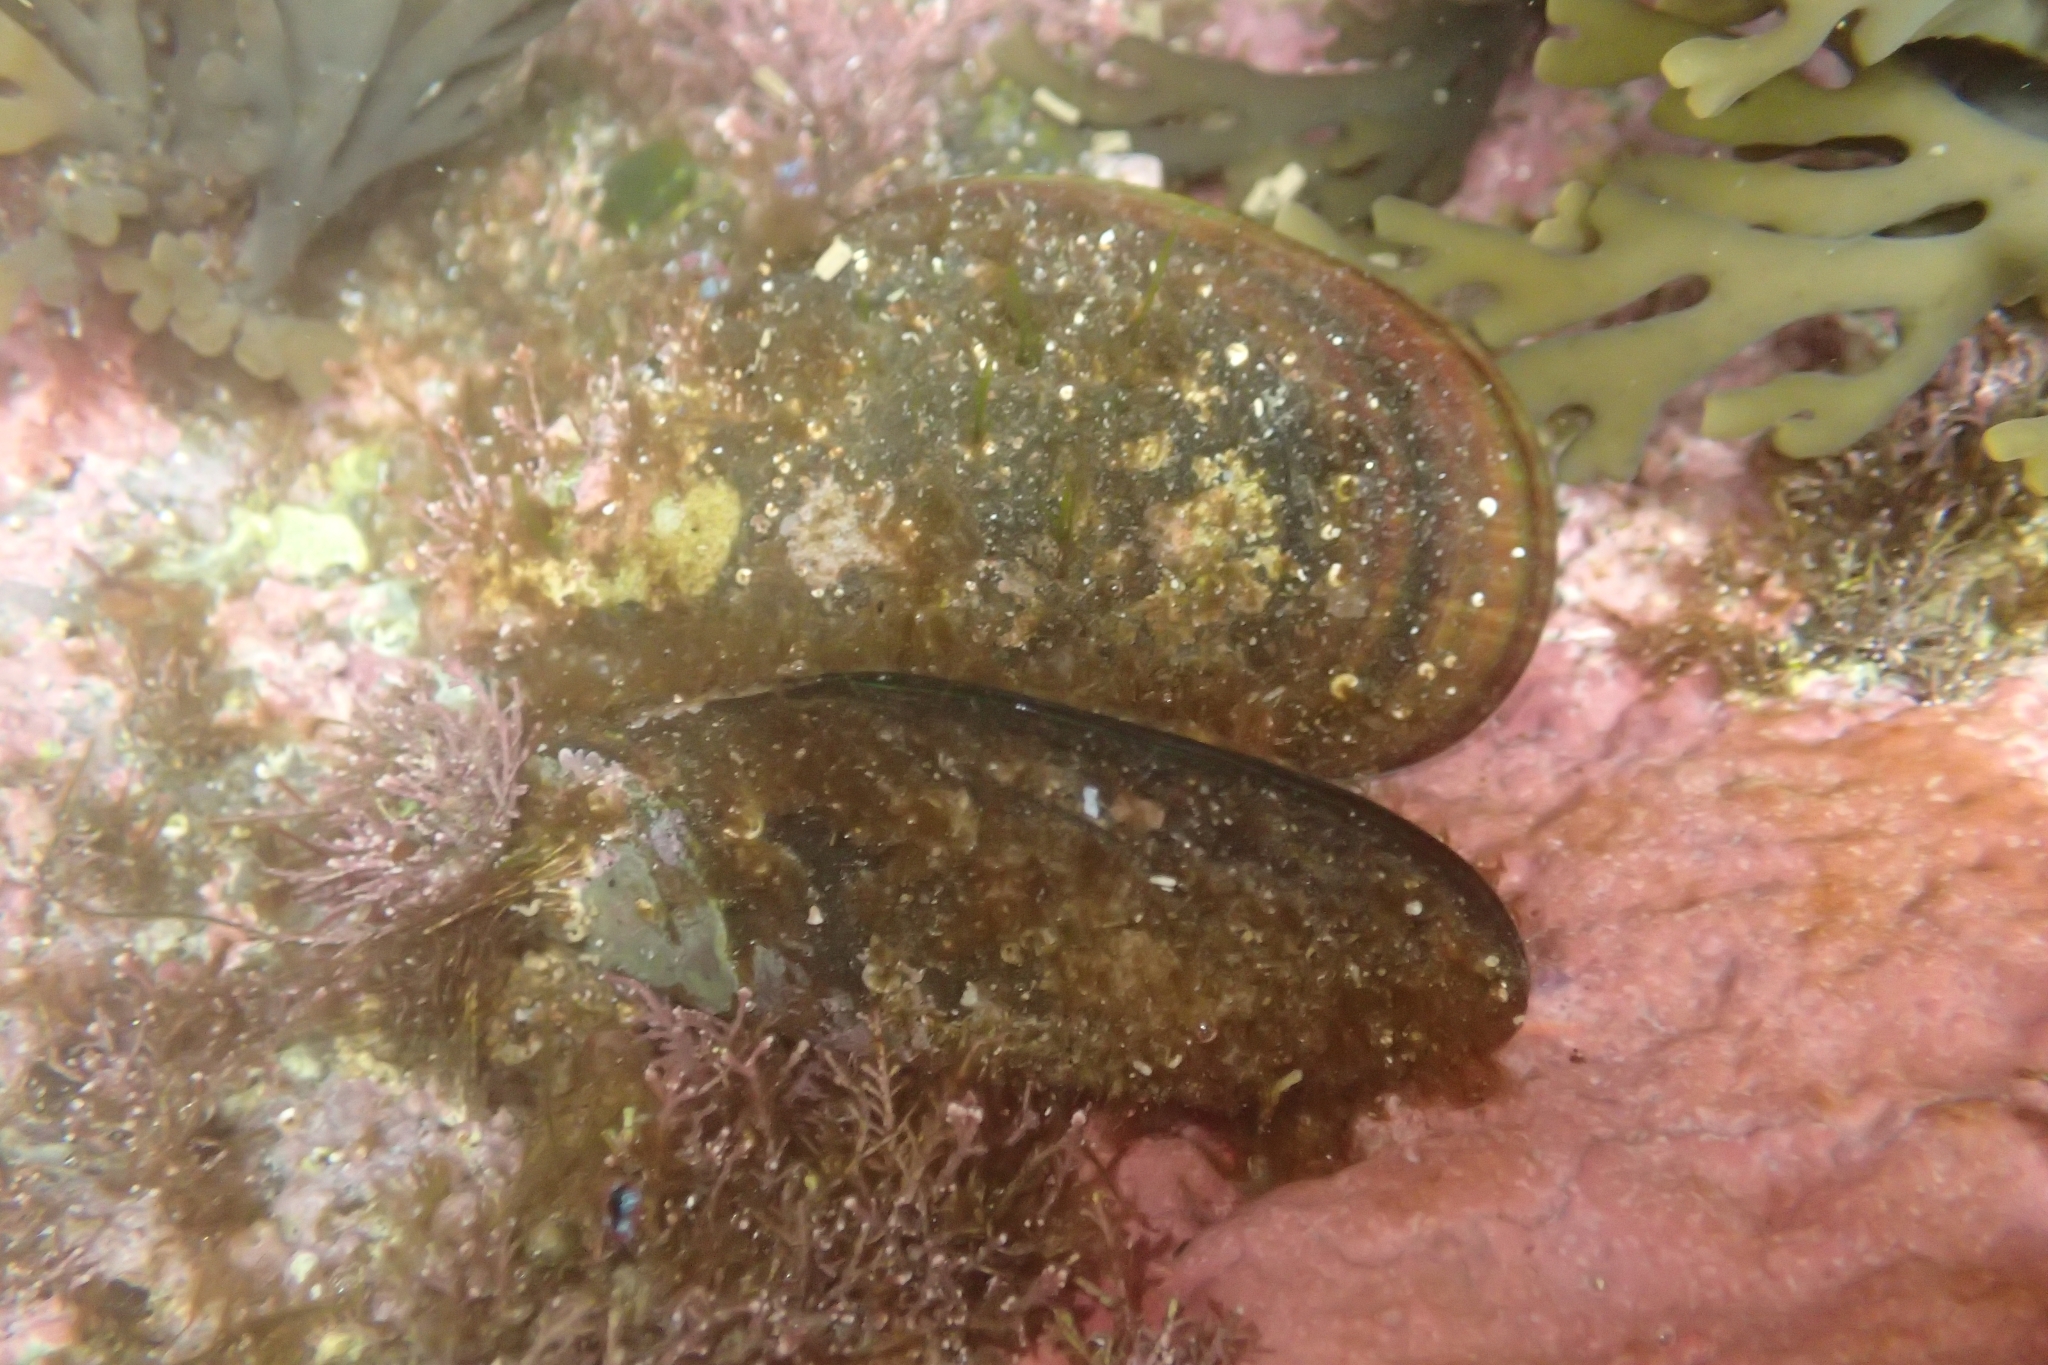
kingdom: Animalia
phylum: Mollusca
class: Bivalvia
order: Mytilida
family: Mytilidae
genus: Perna
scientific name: Perna canaliculus
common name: New zealand greenshelltm
